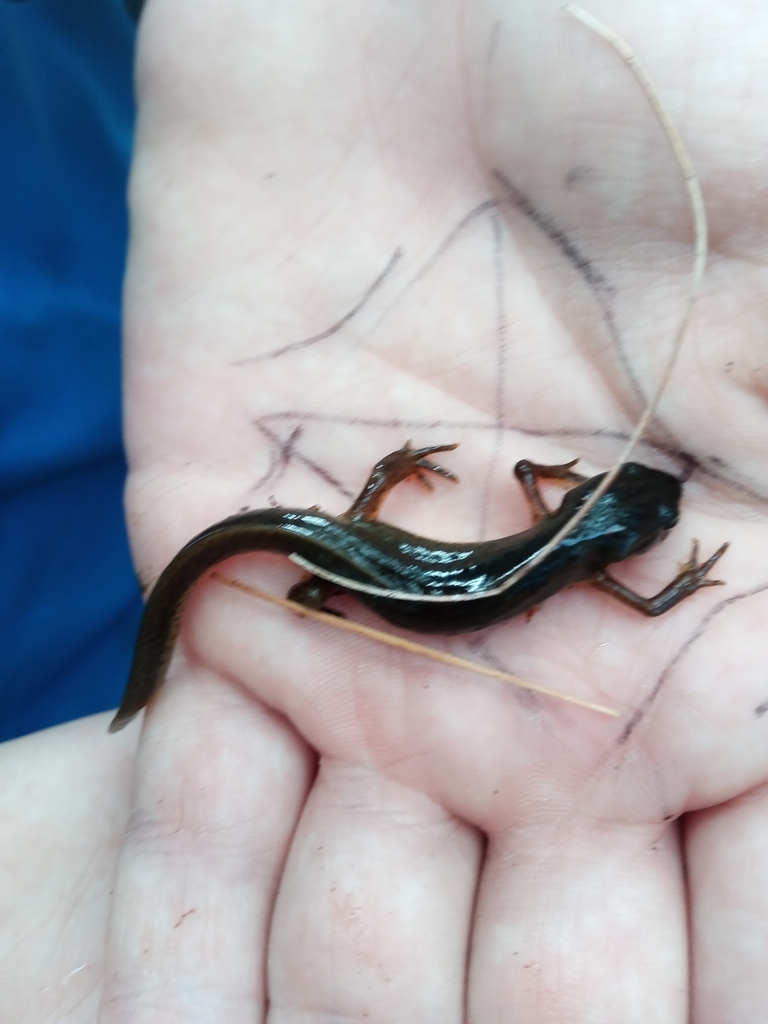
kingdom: Animalia
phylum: Chordata
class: Amphibia
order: Caudata
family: Salamandridae
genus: Notophthalmus
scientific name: Notophthalmus viridescens
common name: Eastern newt
